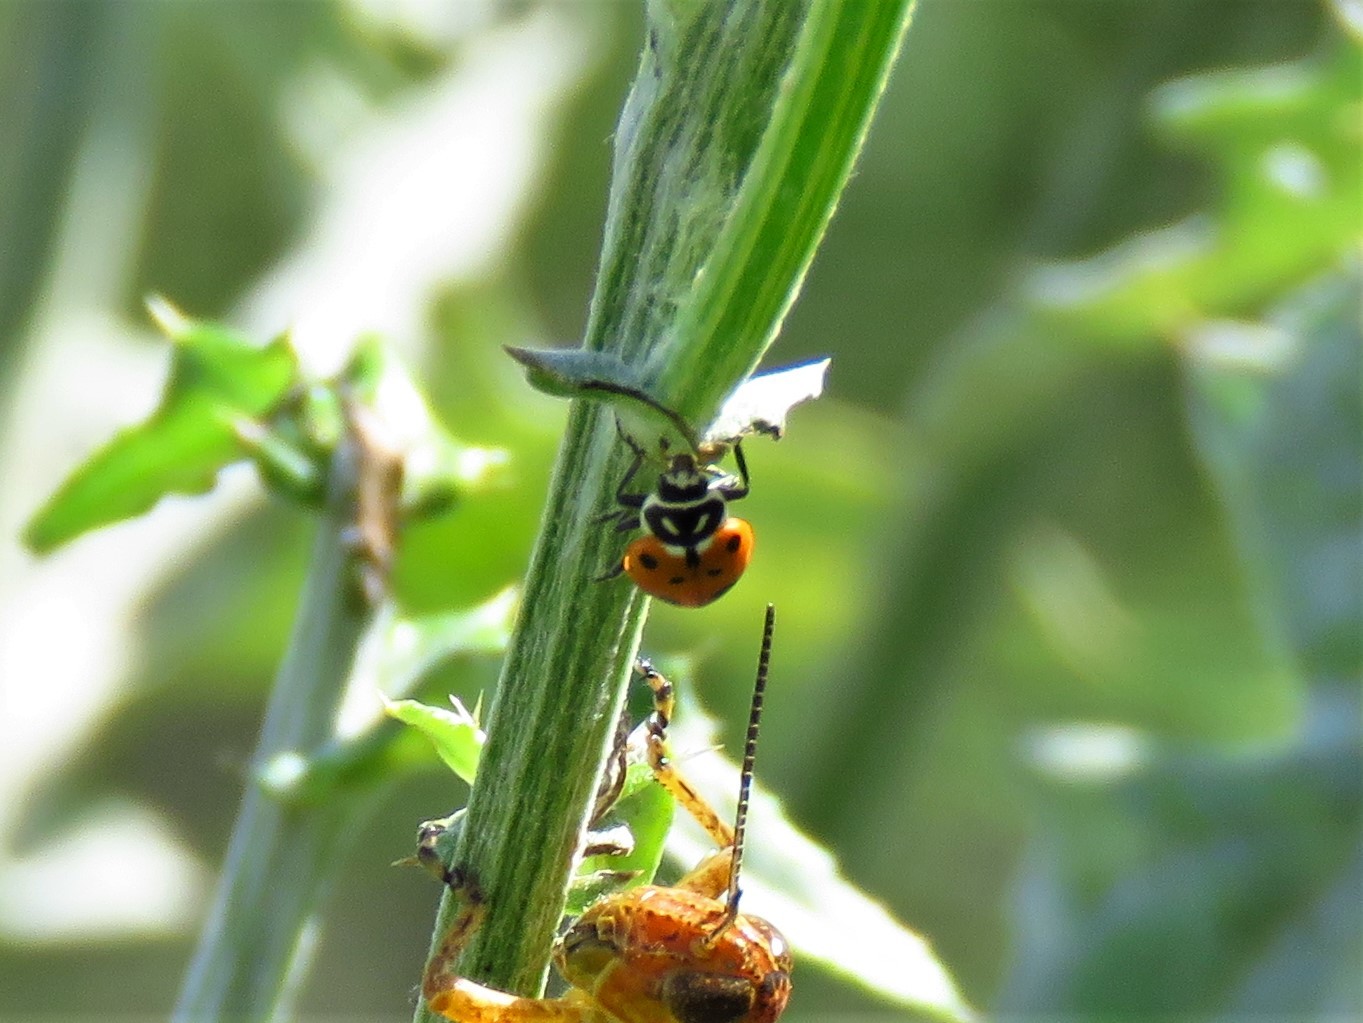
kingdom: Animalia
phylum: Arthropoda
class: Insecta
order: Coleoptera
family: Coccinellidae
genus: Hippodamia
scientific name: Hippodamia convergens
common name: Convergent lady beetle
